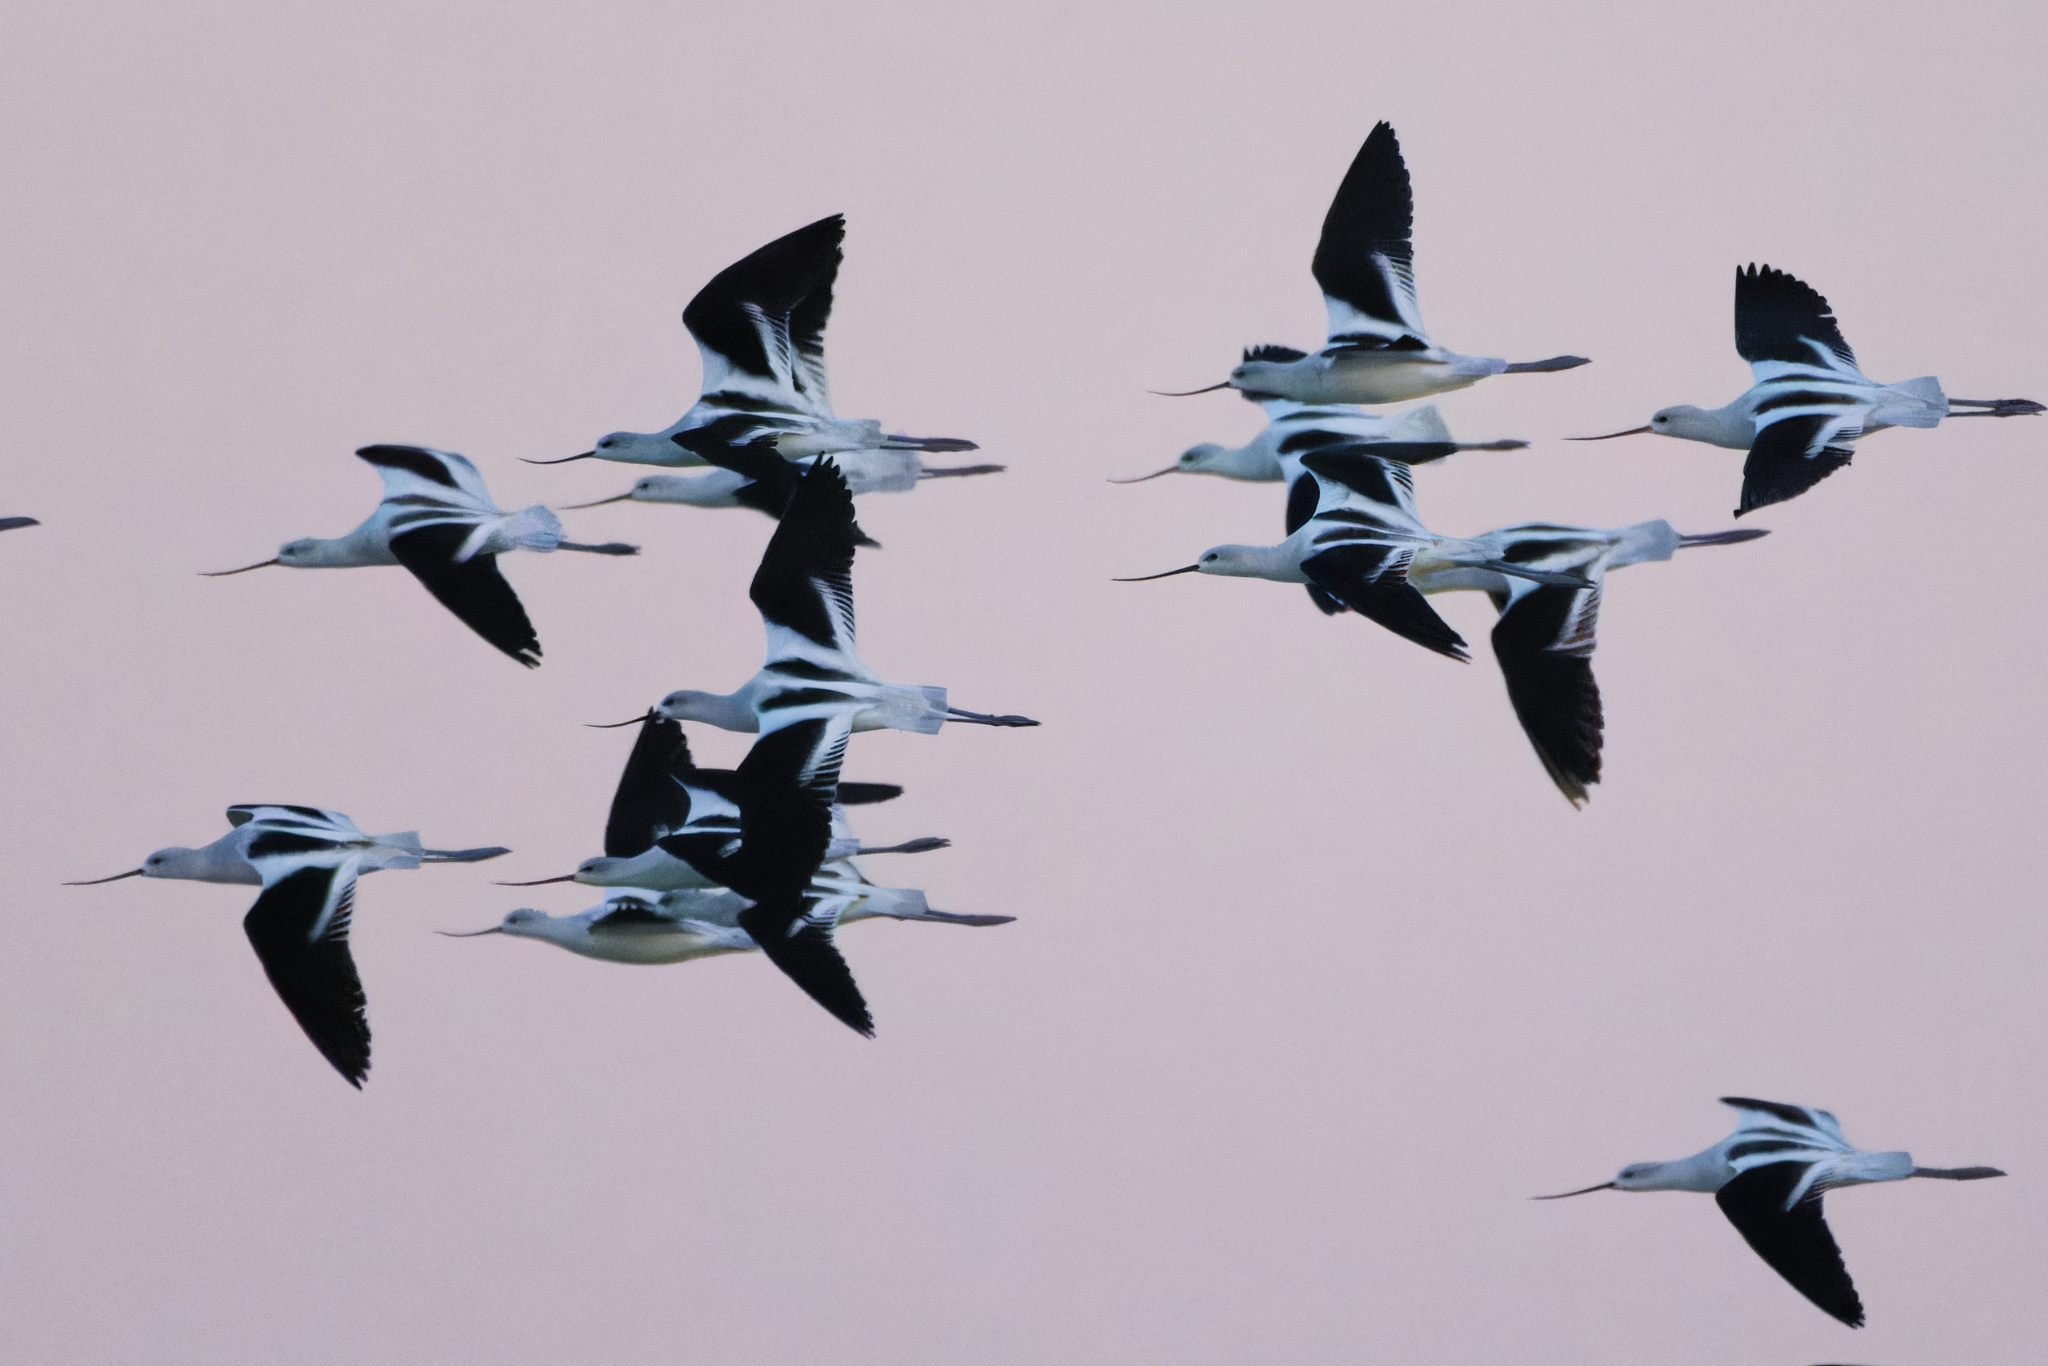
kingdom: Animalia
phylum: Chordata
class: Aves
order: Charadriiformes
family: Recurvirostridae
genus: Recurvirostra
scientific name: Recurvirostra americana
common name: American avocet
